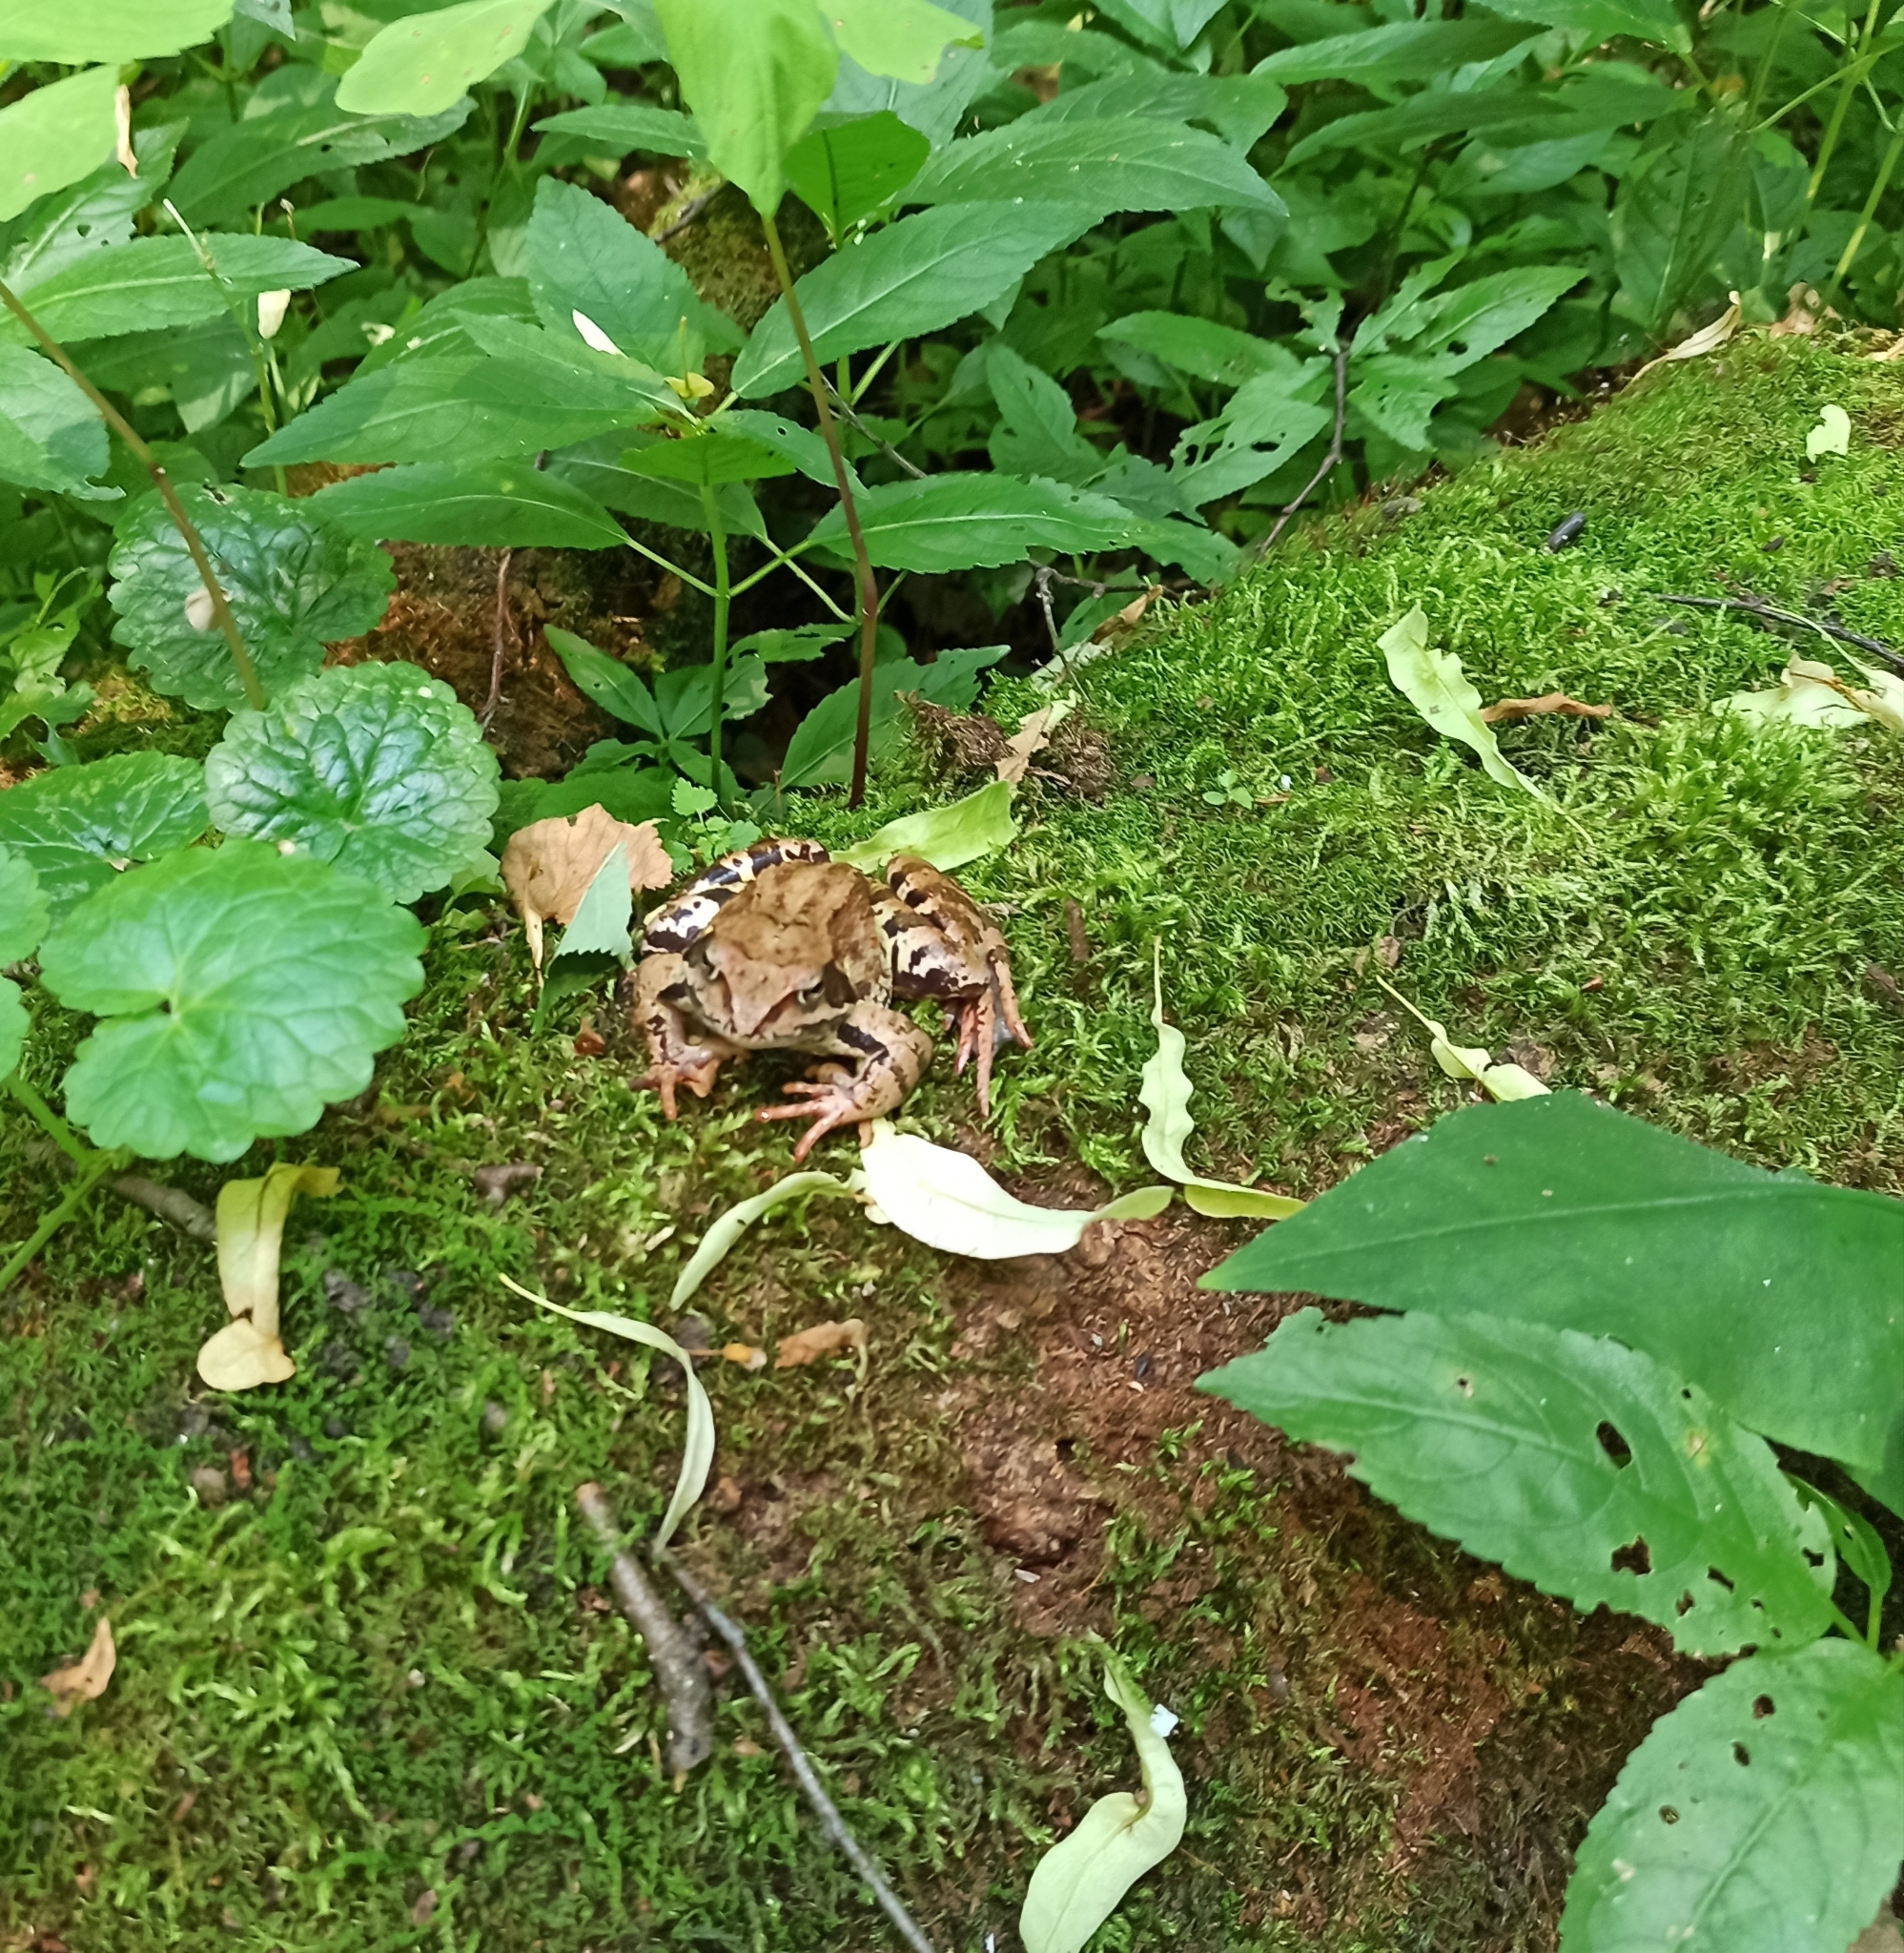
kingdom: Animalia
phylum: Chordata
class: Amphibia
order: Anura
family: Ranidae
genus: Rana
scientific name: Rana temporaria
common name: Common frog
